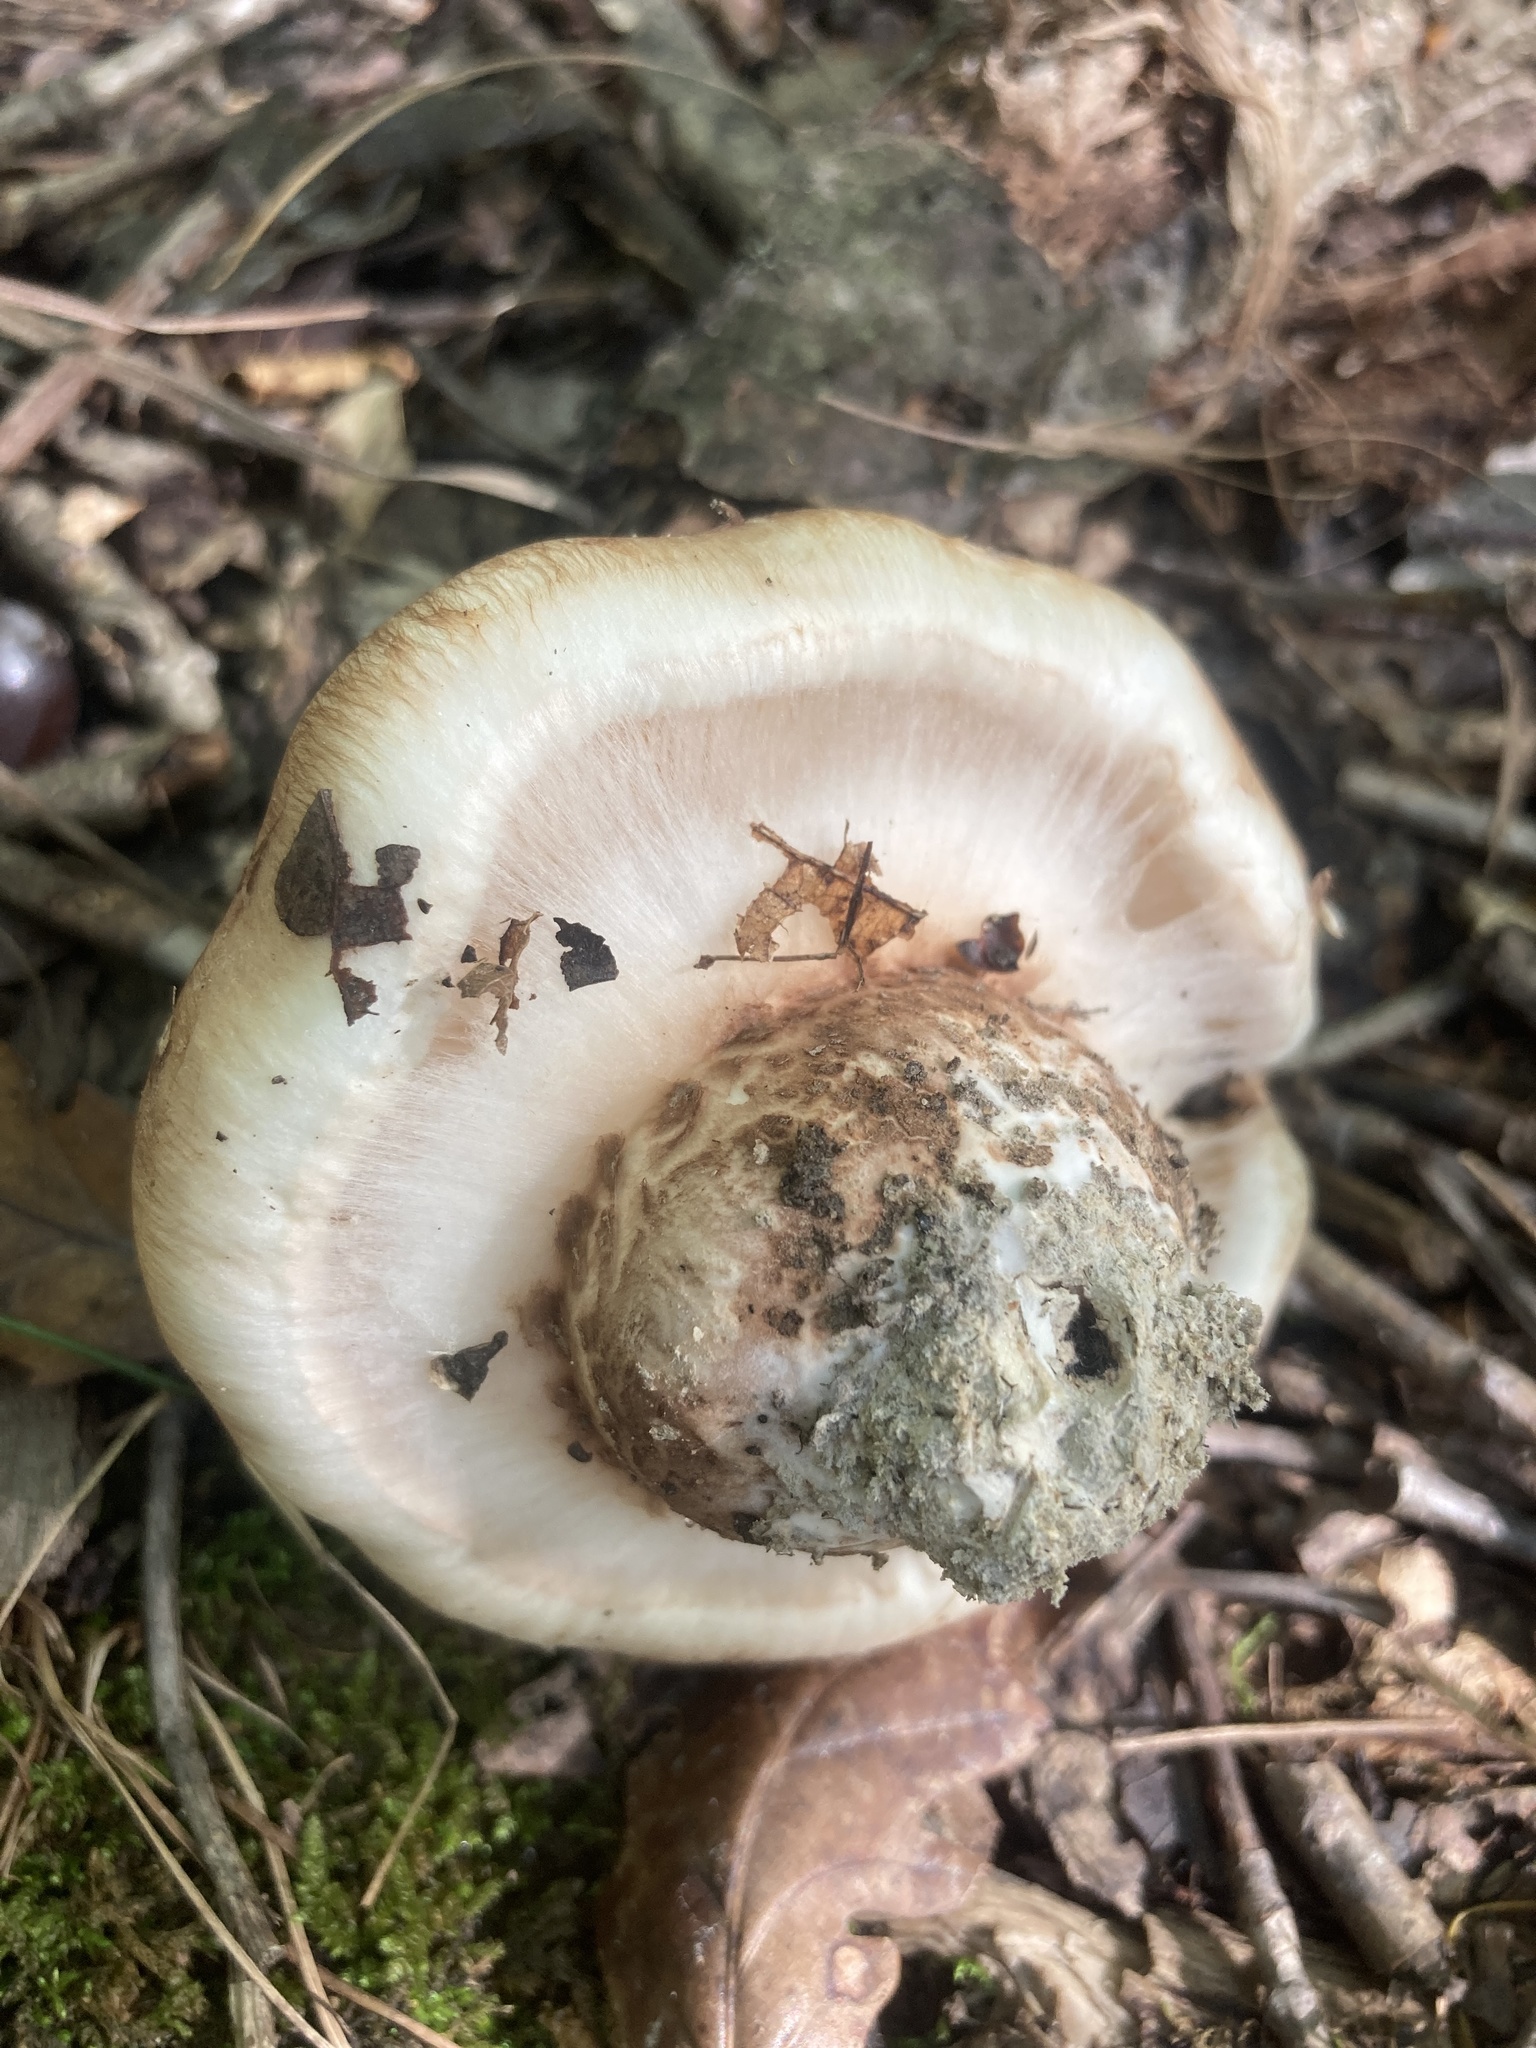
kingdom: Fungi
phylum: Basidiomycota
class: Agaricomycetes
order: Agaricales
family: Tricholomataceae
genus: Tricholoma
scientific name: Tricholoma caligatum
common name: True booted knight
